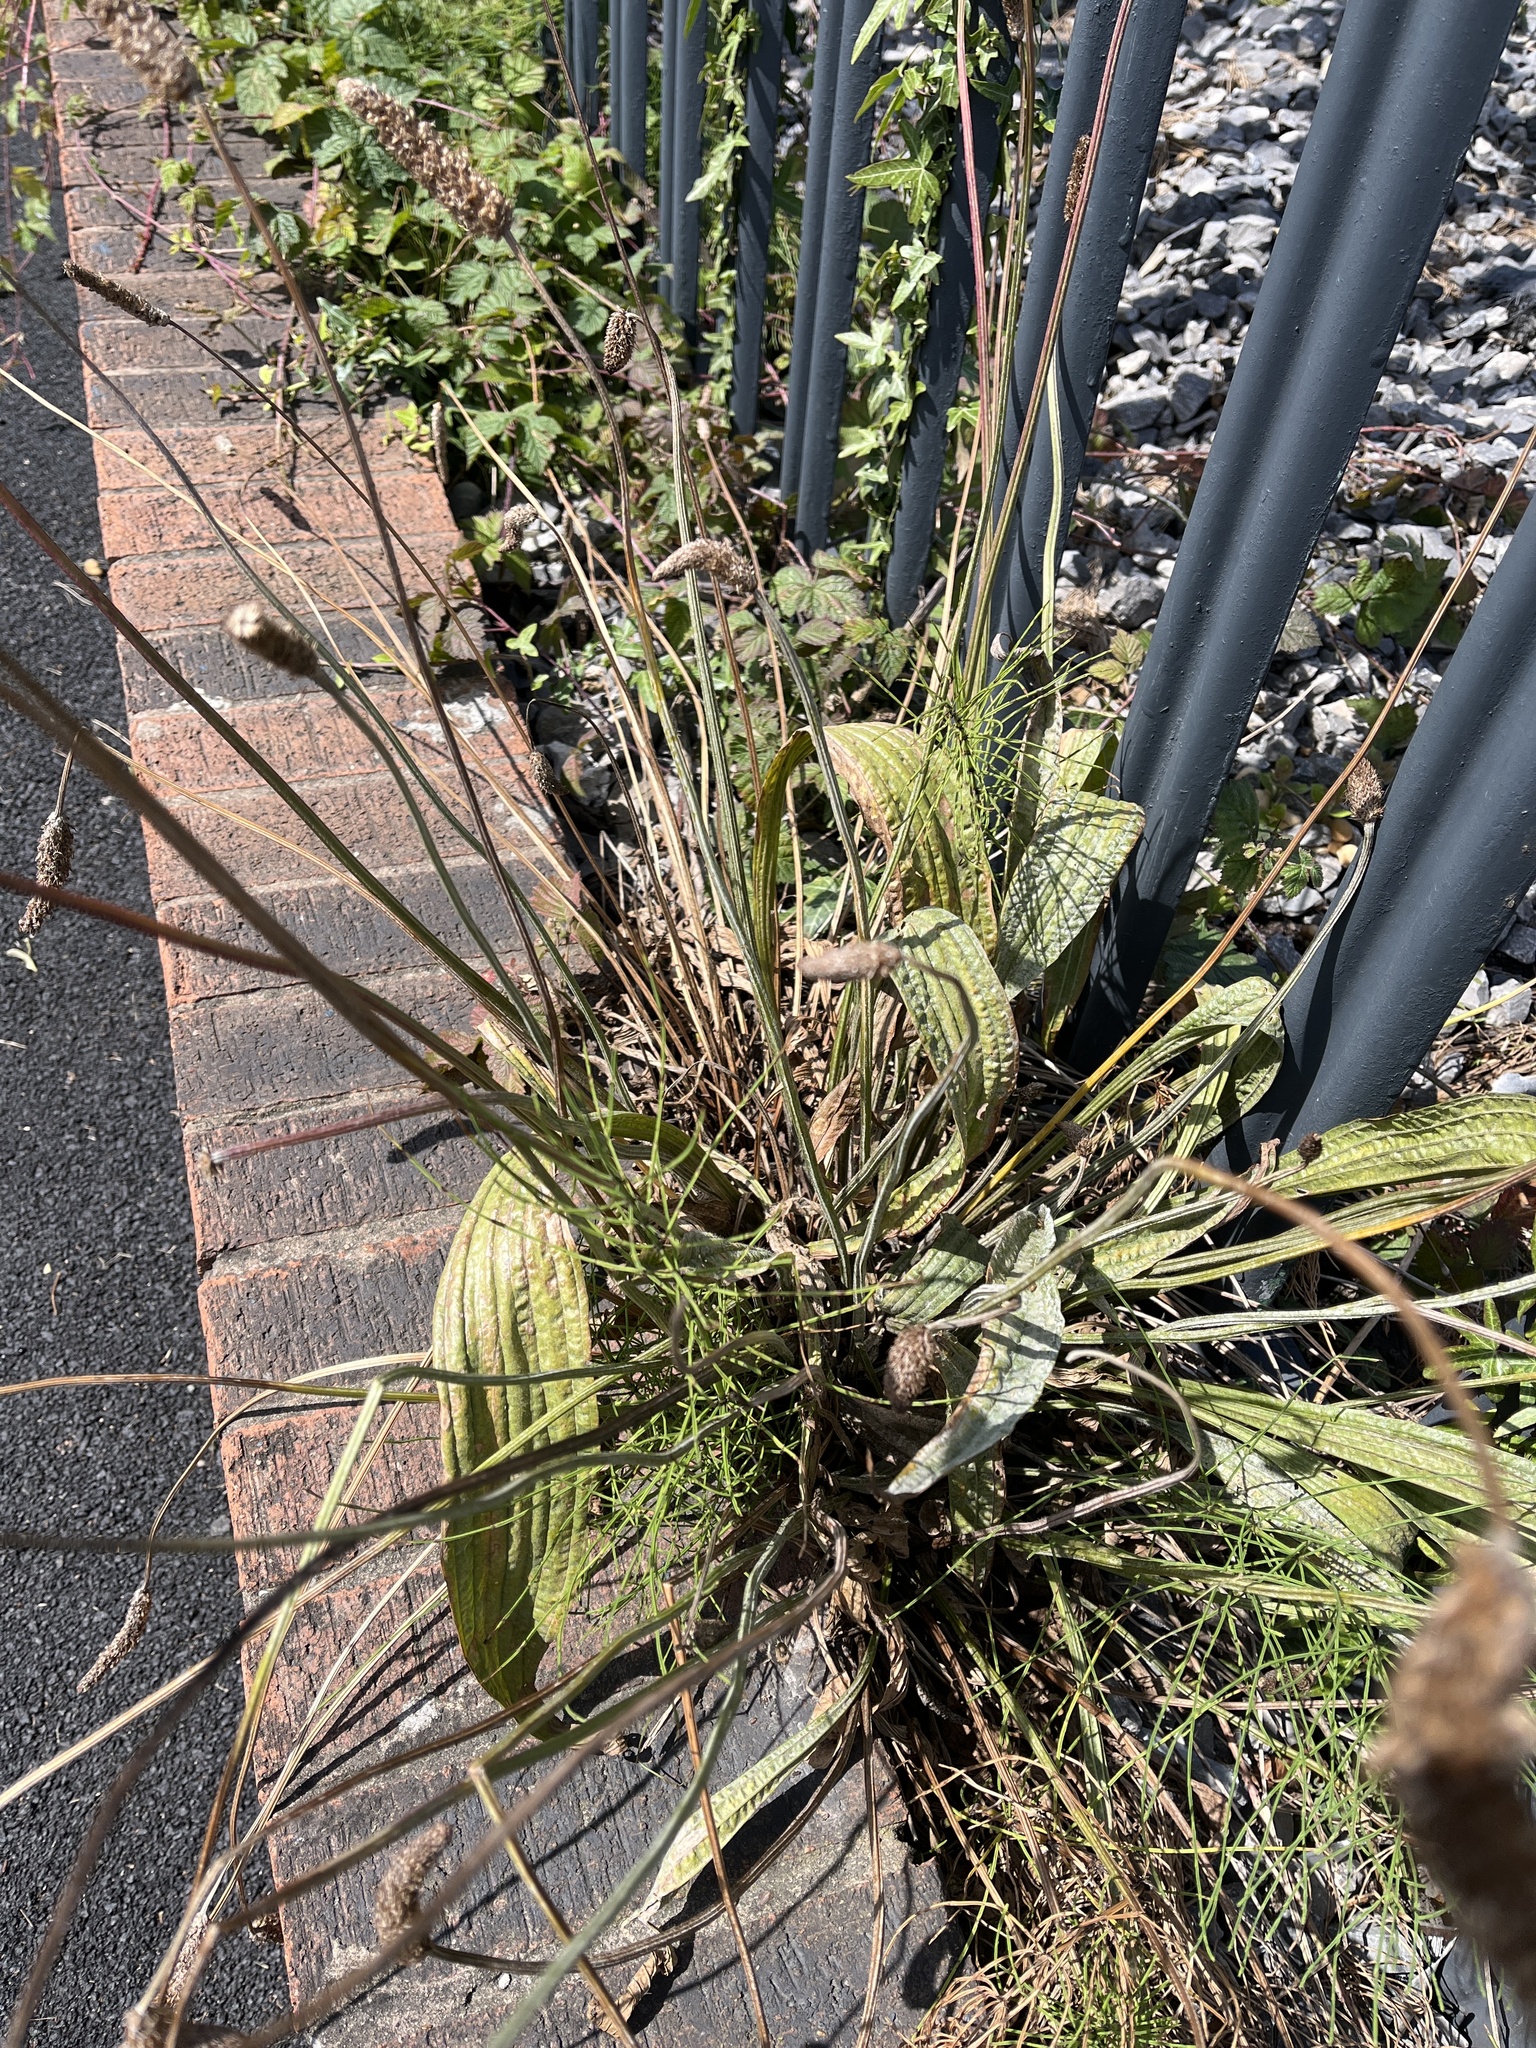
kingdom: Plantae
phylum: Tracheophyta
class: Magnoliopsida
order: Lamiales
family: Plantaginaceae
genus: Plantago
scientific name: Plantago lanceolata
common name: Ribwort plantain
